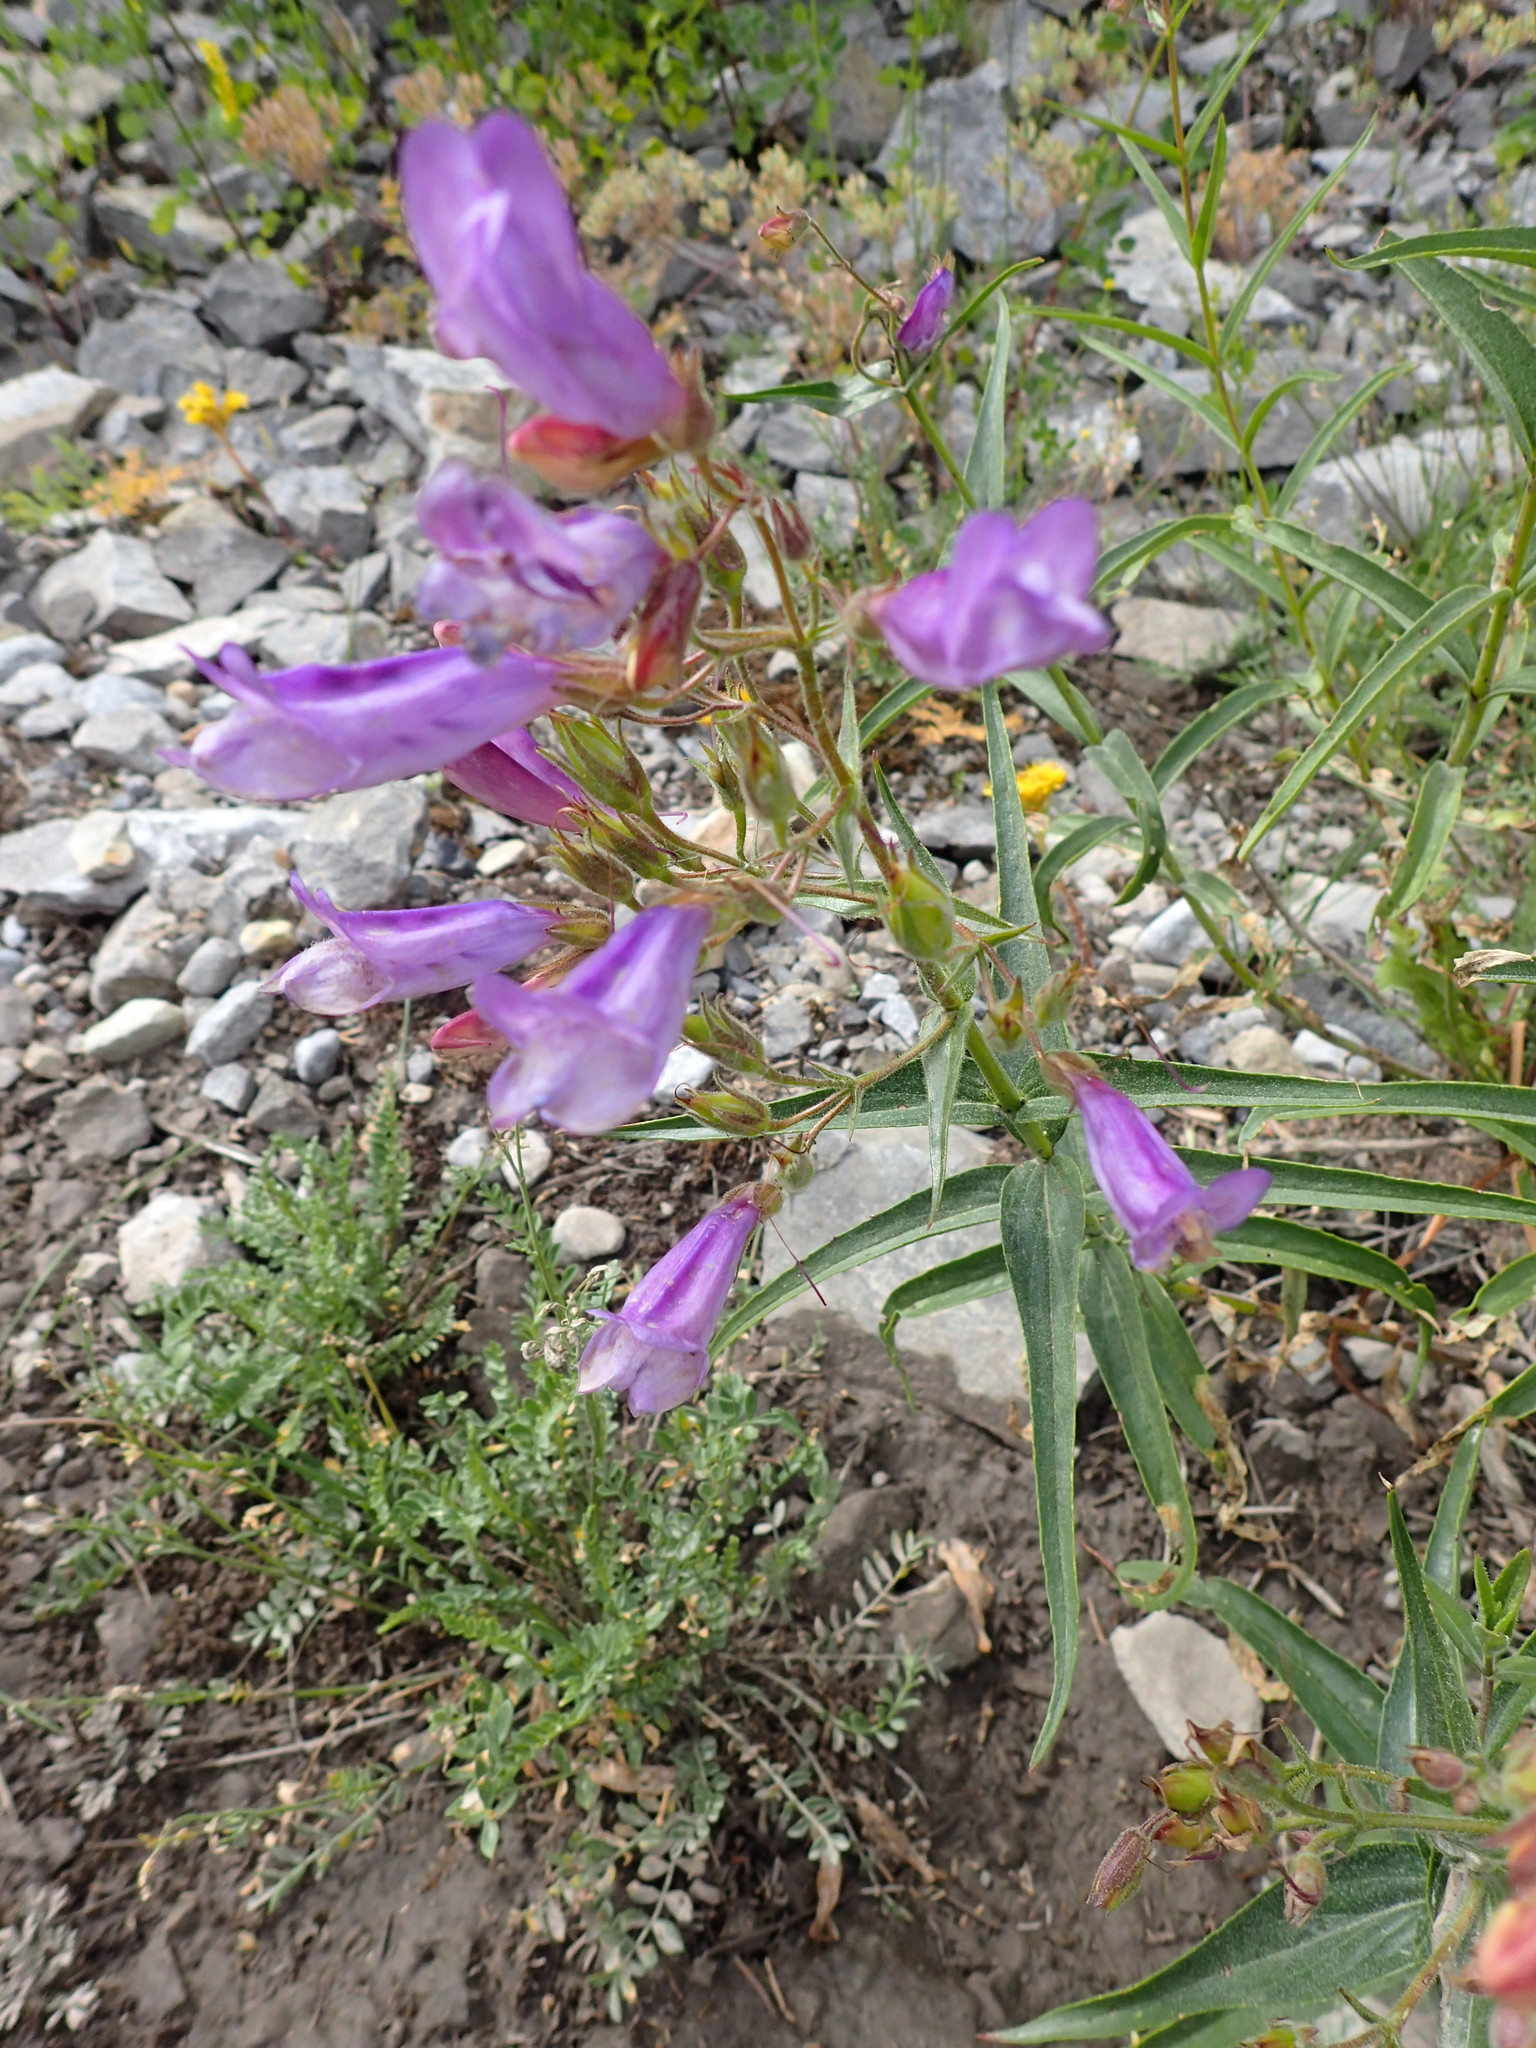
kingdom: Plantae
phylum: Tracheophyta
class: Magnoliopsida
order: Lamiales
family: Plantaginaceae
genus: Penstemon
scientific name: Penstemon lyalli
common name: Lyall's beardtongue
